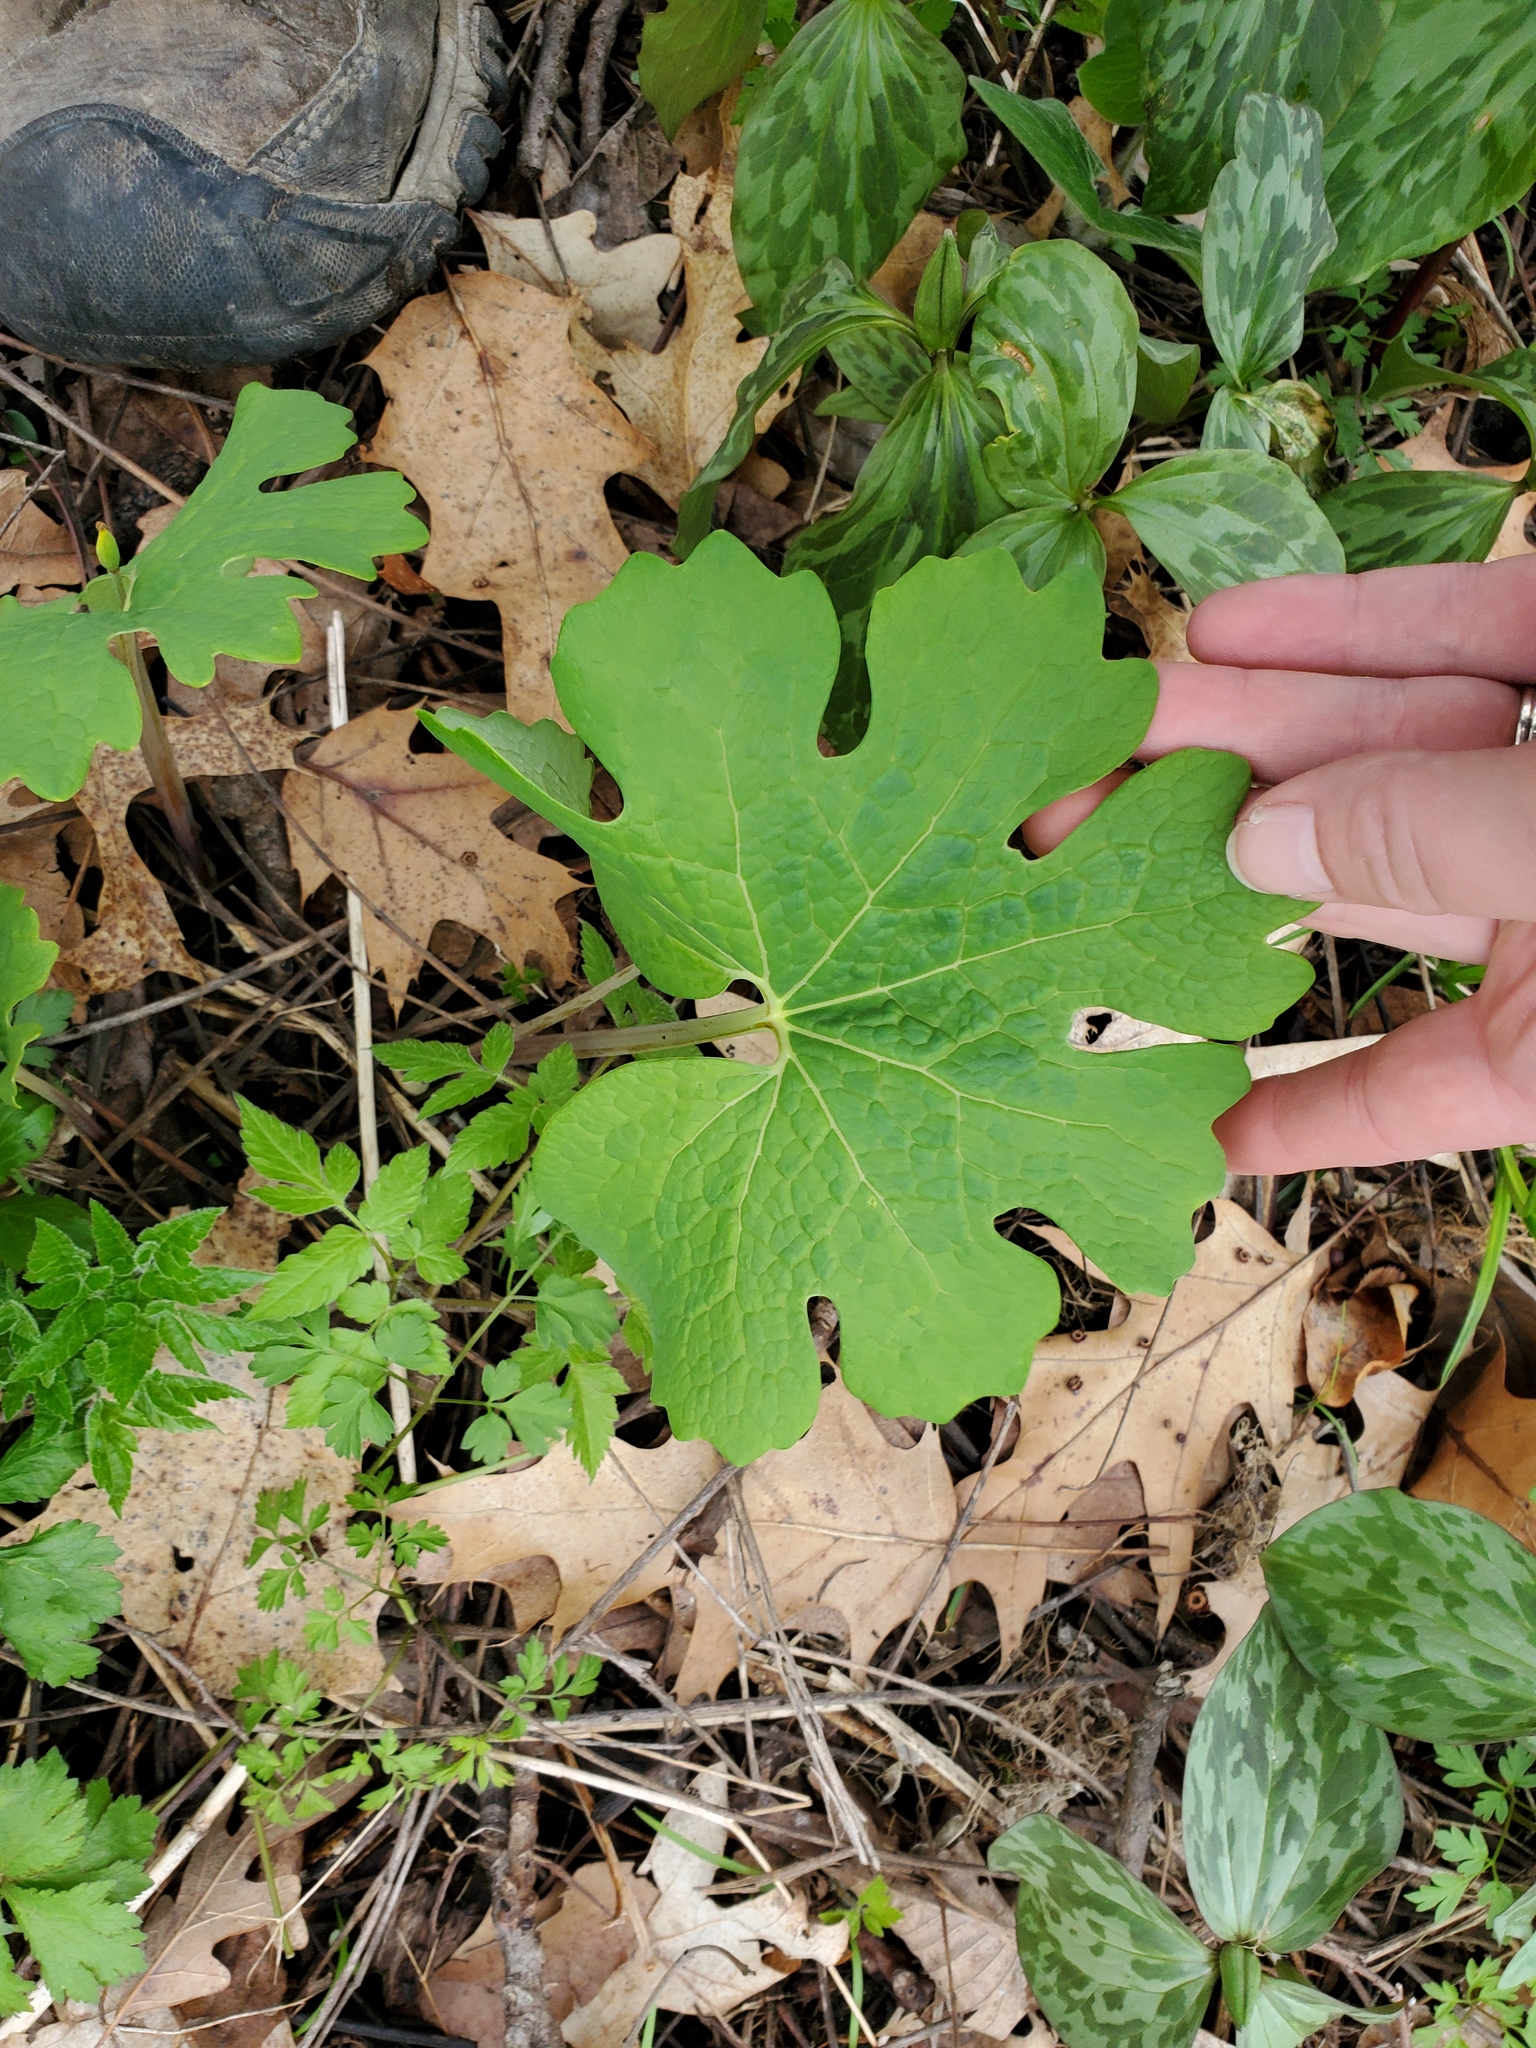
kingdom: Plantae
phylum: Tracheophyta
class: Magnoliopsida
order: Ranunculales
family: Papaveraceae
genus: Sanguinaria
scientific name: Sanguinaria canadensis
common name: Bloodroot
